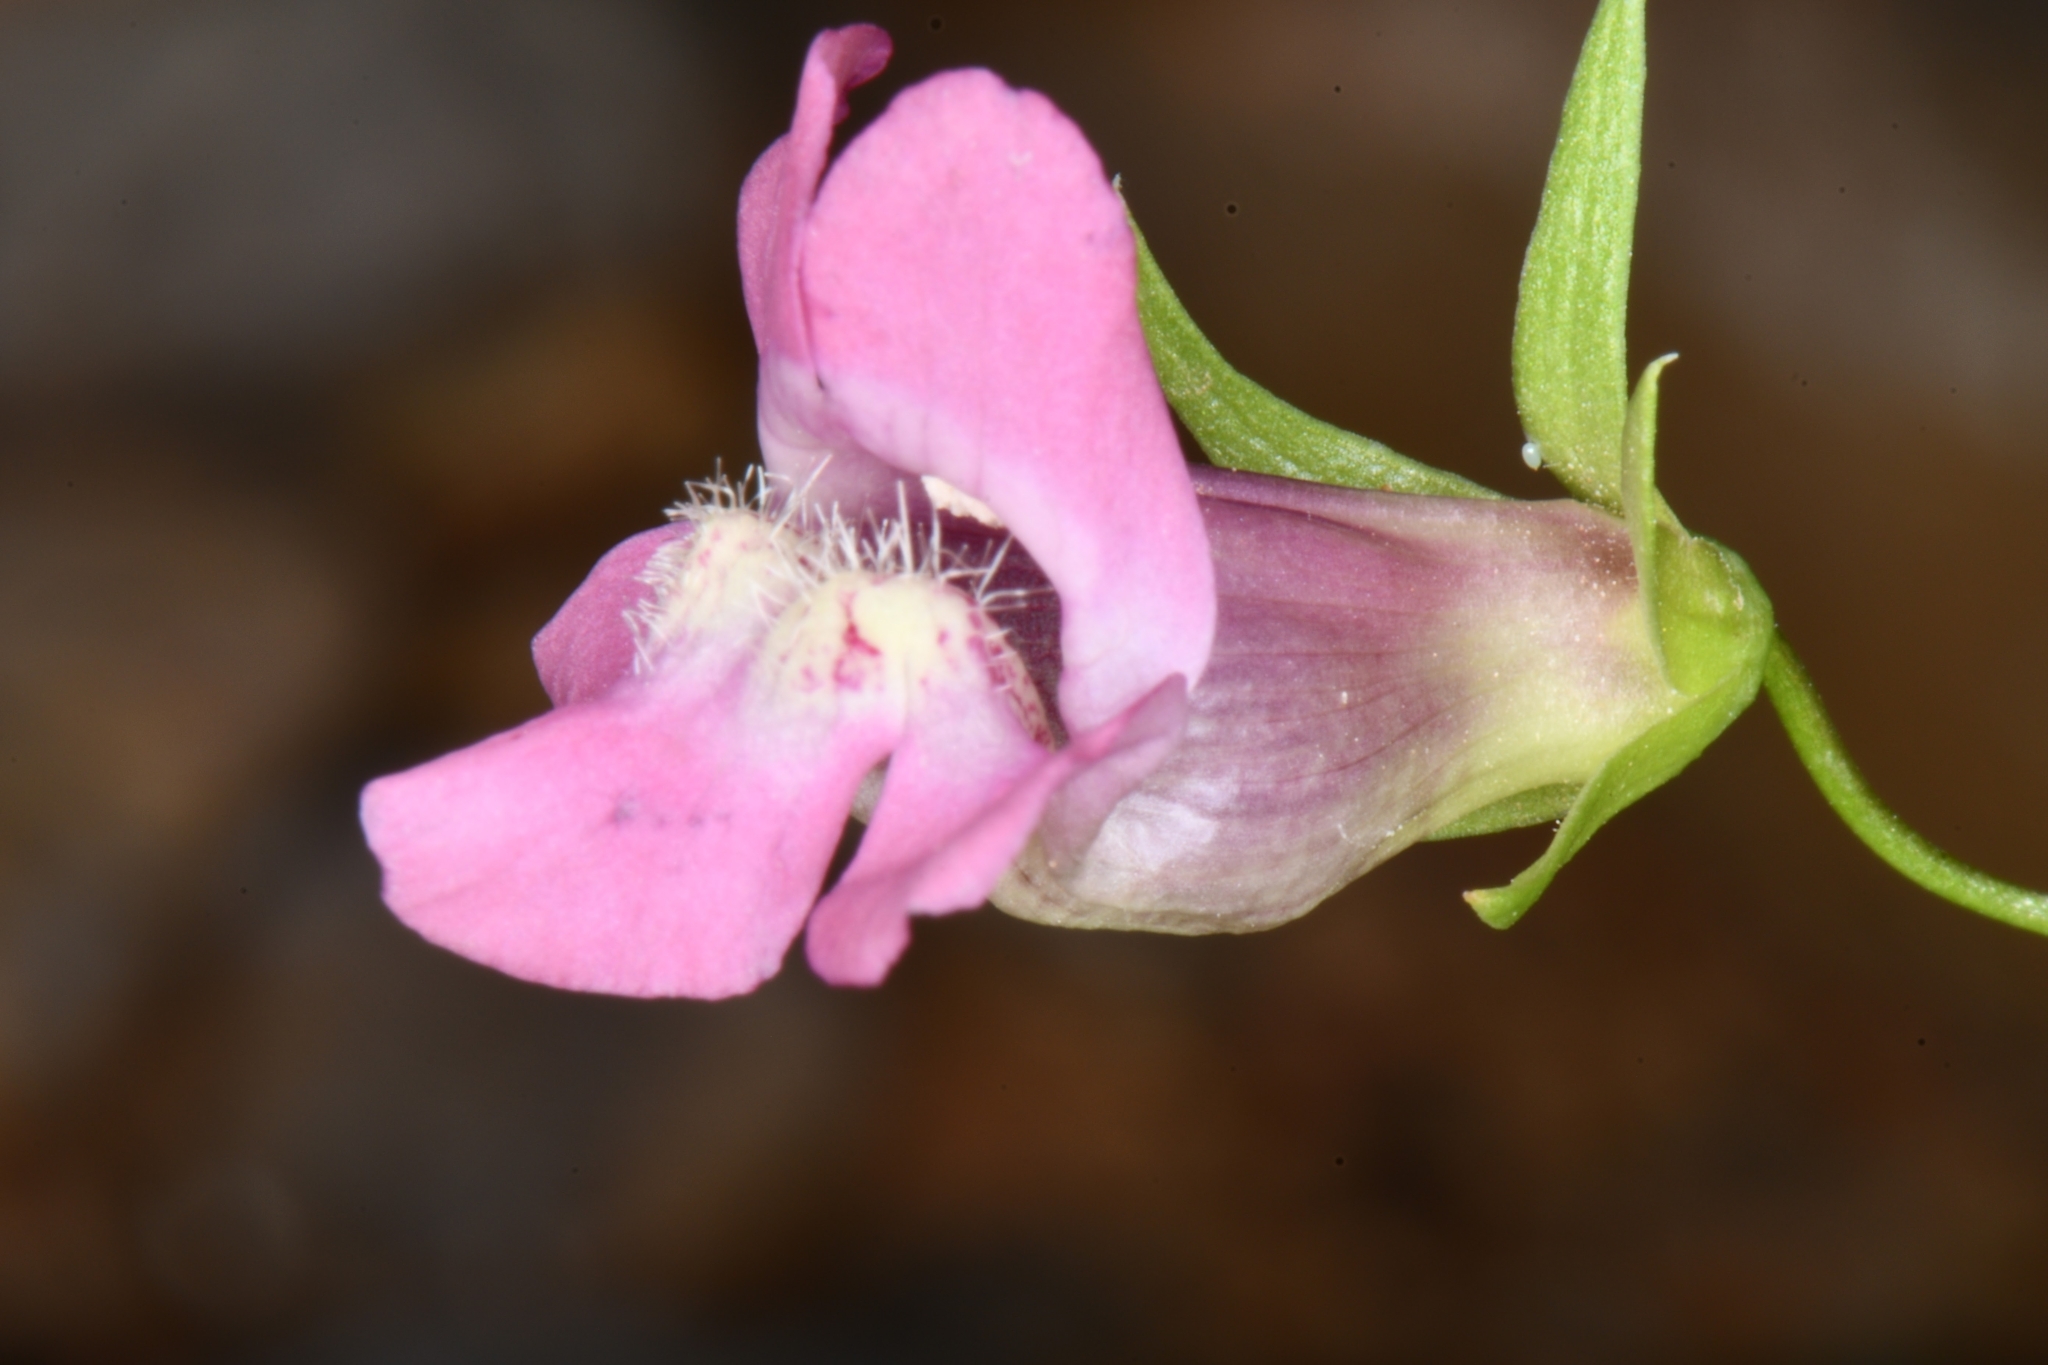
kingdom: Plantae
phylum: Tracheophyta
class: Magnoliopsida
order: Lamiales
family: Plantaginaceae
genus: Maurandella
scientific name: Maurandella antirrhiniflora
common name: Violet twining-snapdragon
